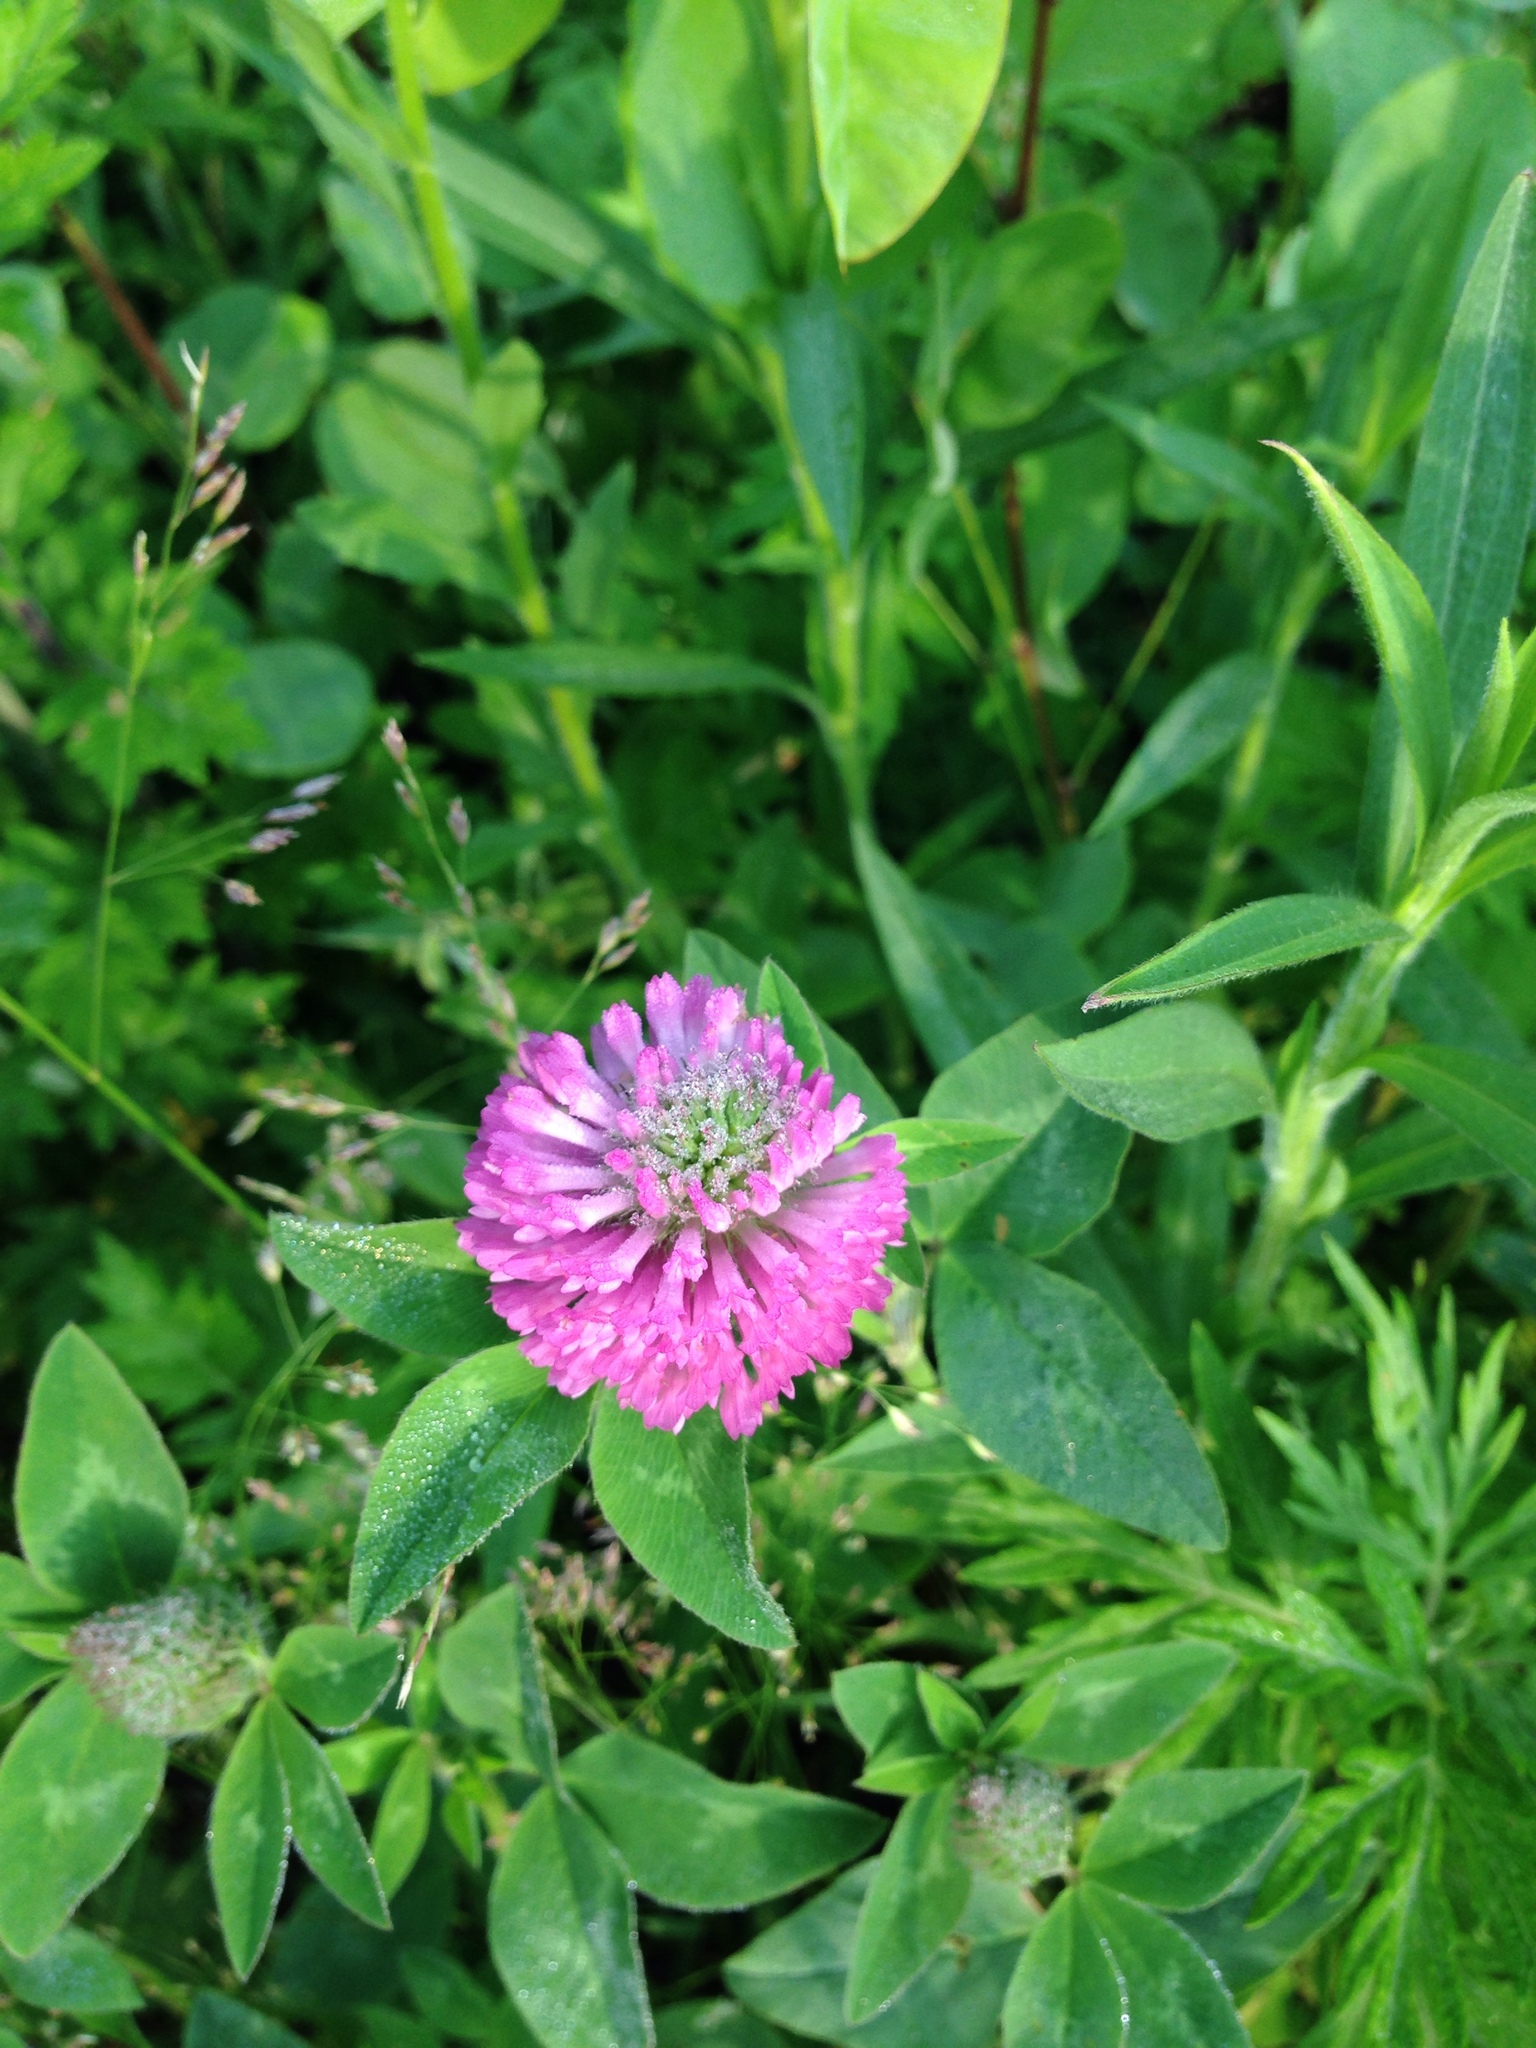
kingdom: Plantae
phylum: Tracheophyta
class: Magnoliopsida
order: Fabales
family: Fabaceae
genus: Trifolium
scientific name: Trifolium pratense
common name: Red clover
